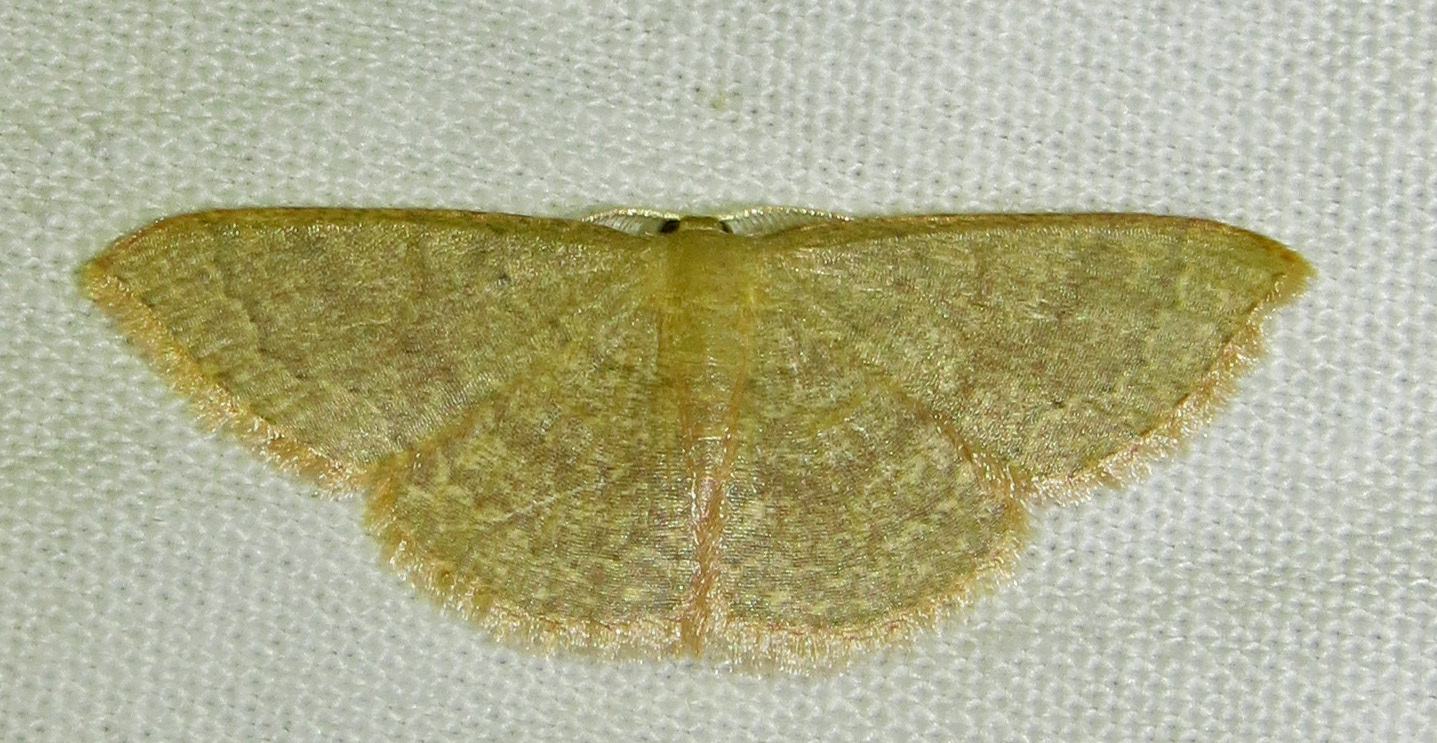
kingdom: Animalia
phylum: Arthropoda
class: Insecta
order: Lepidoptera
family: Geometridae
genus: Pleuroprucha
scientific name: Pleuroprucha insulsaria
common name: Common tan wave
